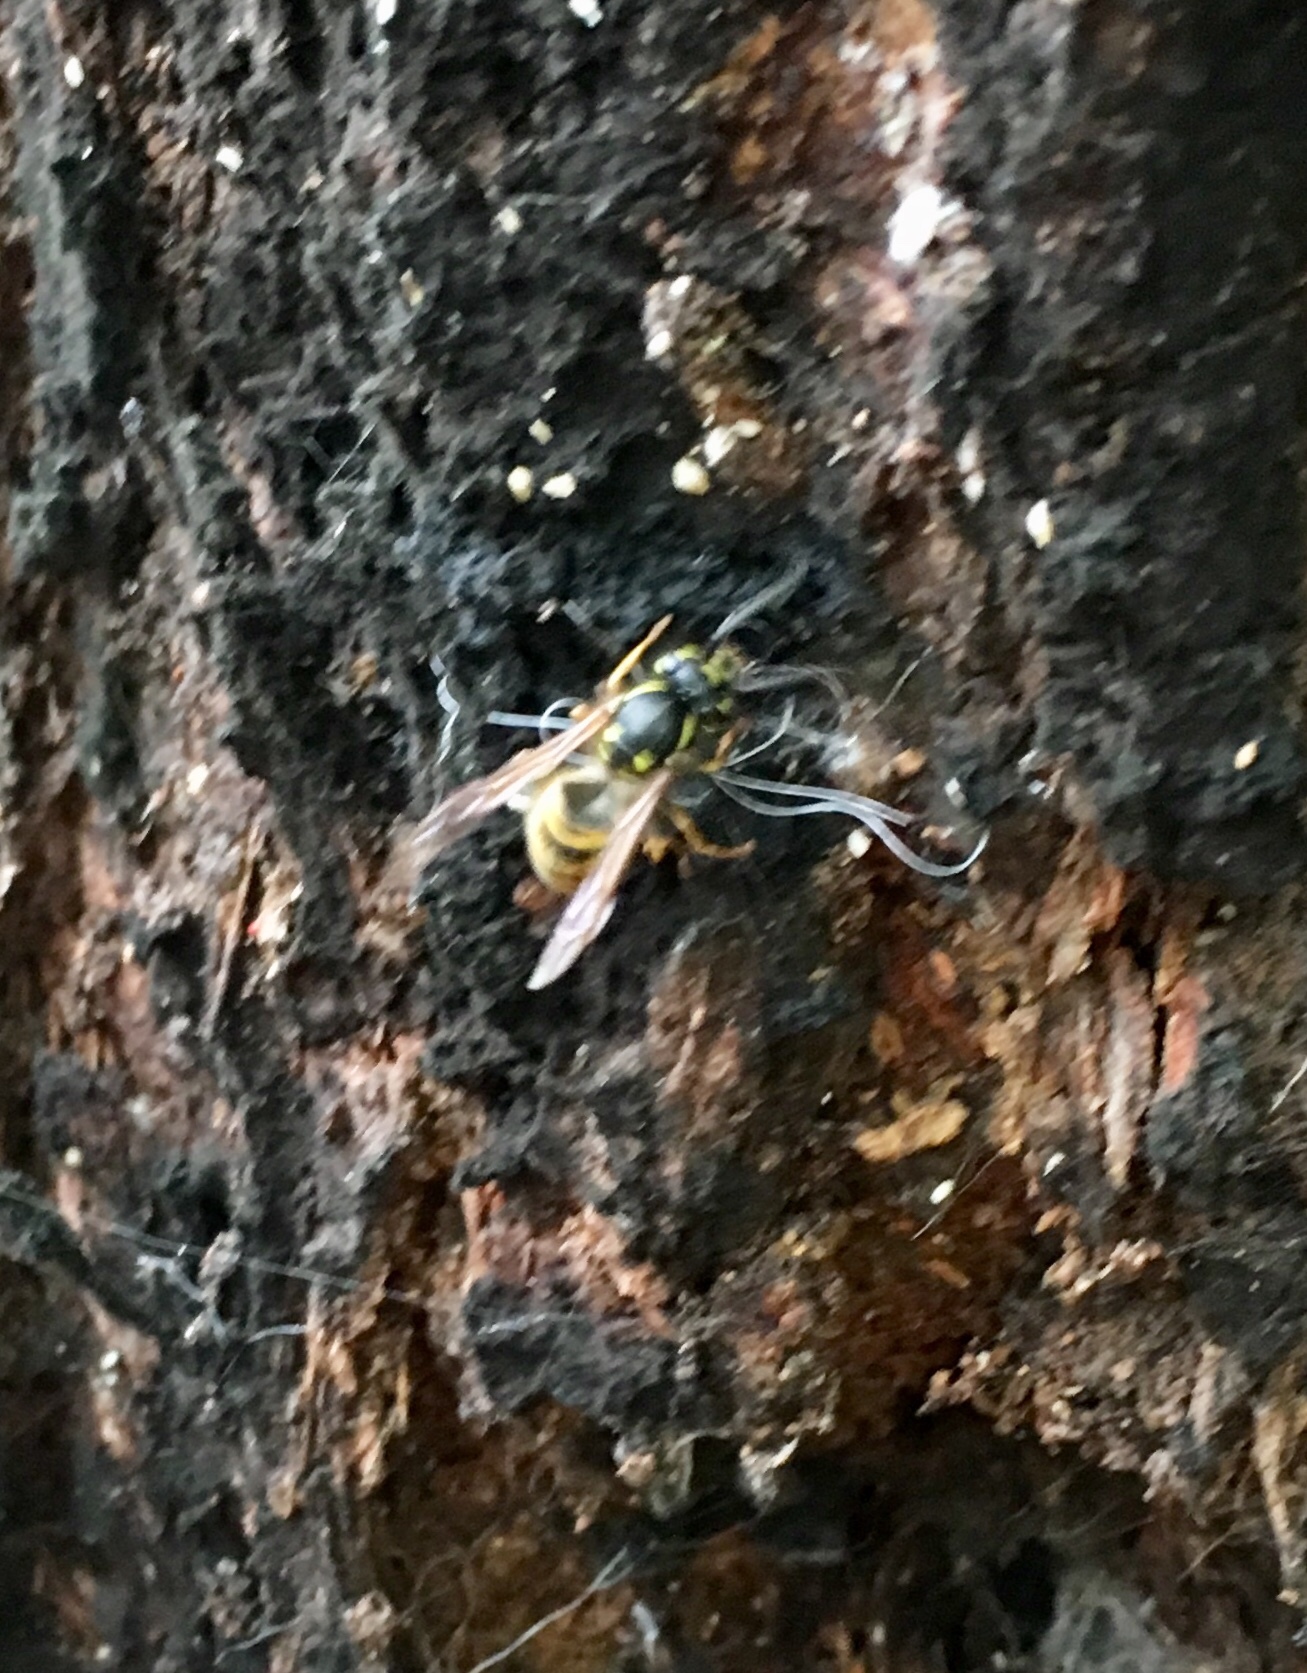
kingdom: Animalia
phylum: Arthropoda
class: Insecta
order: Hymenoptera
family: Vespidae
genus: Vespula
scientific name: Vespula vulgaris
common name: Common wasp
